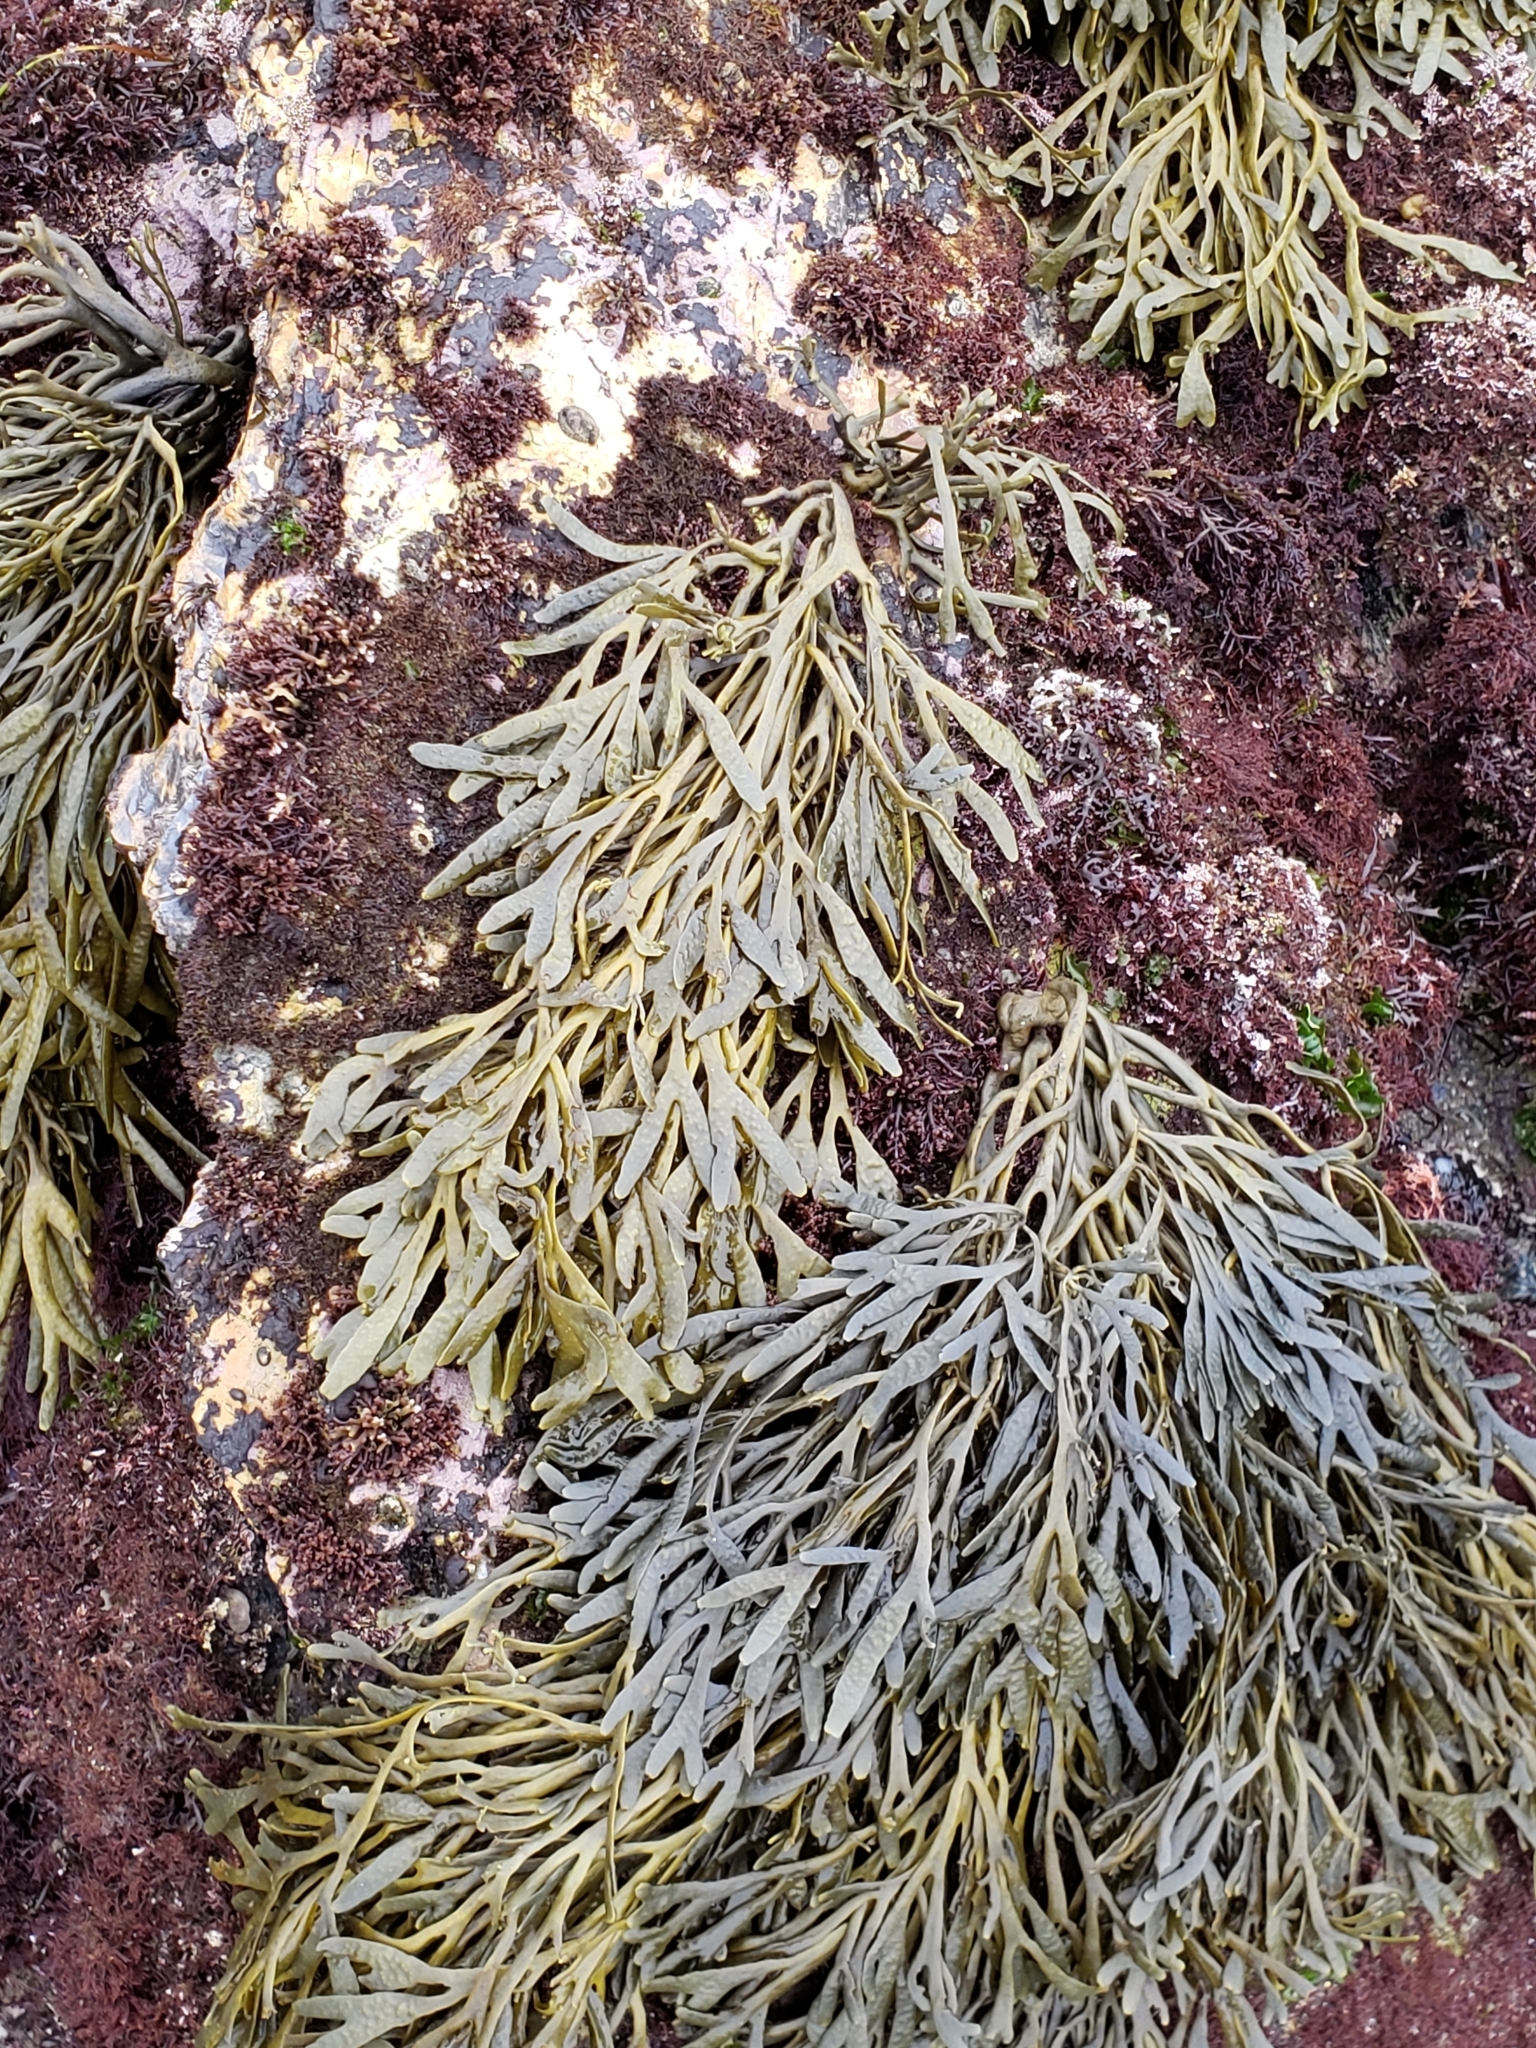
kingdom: Chromista
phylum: Ochrophyta
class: Phaeophyceae
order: Fucales
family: Fucaceae
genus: Silvetia
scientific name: Silvetia
